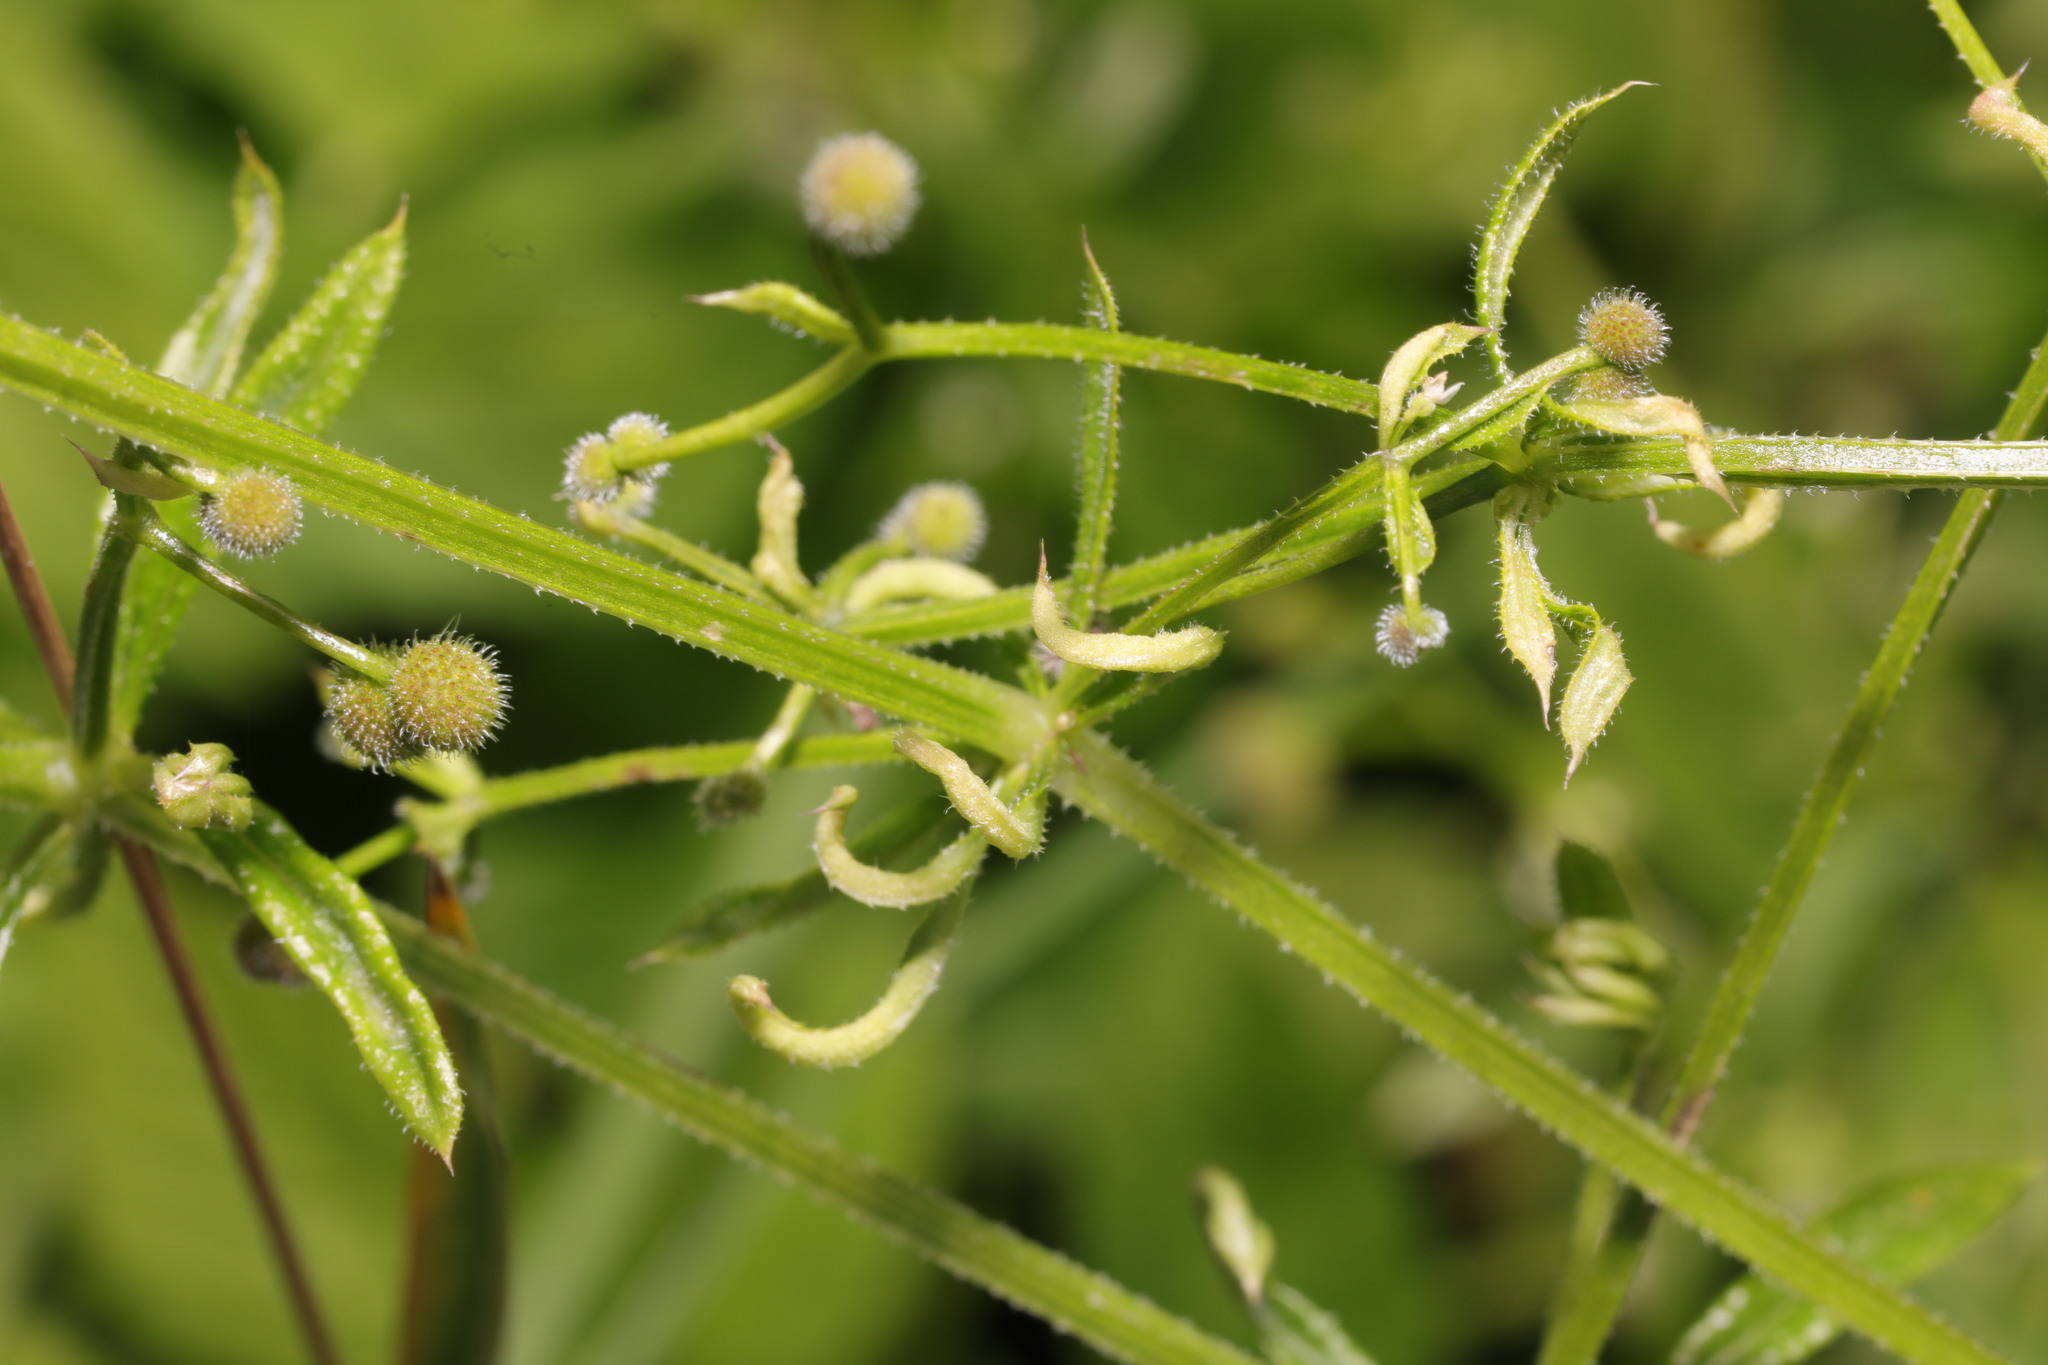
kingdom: Animalia
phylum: Arthropoda
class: Arachnida
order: Trombidiformes
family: Eriophyidae
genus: Cecidophyes
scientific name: Cecidophyes rouhollahi
